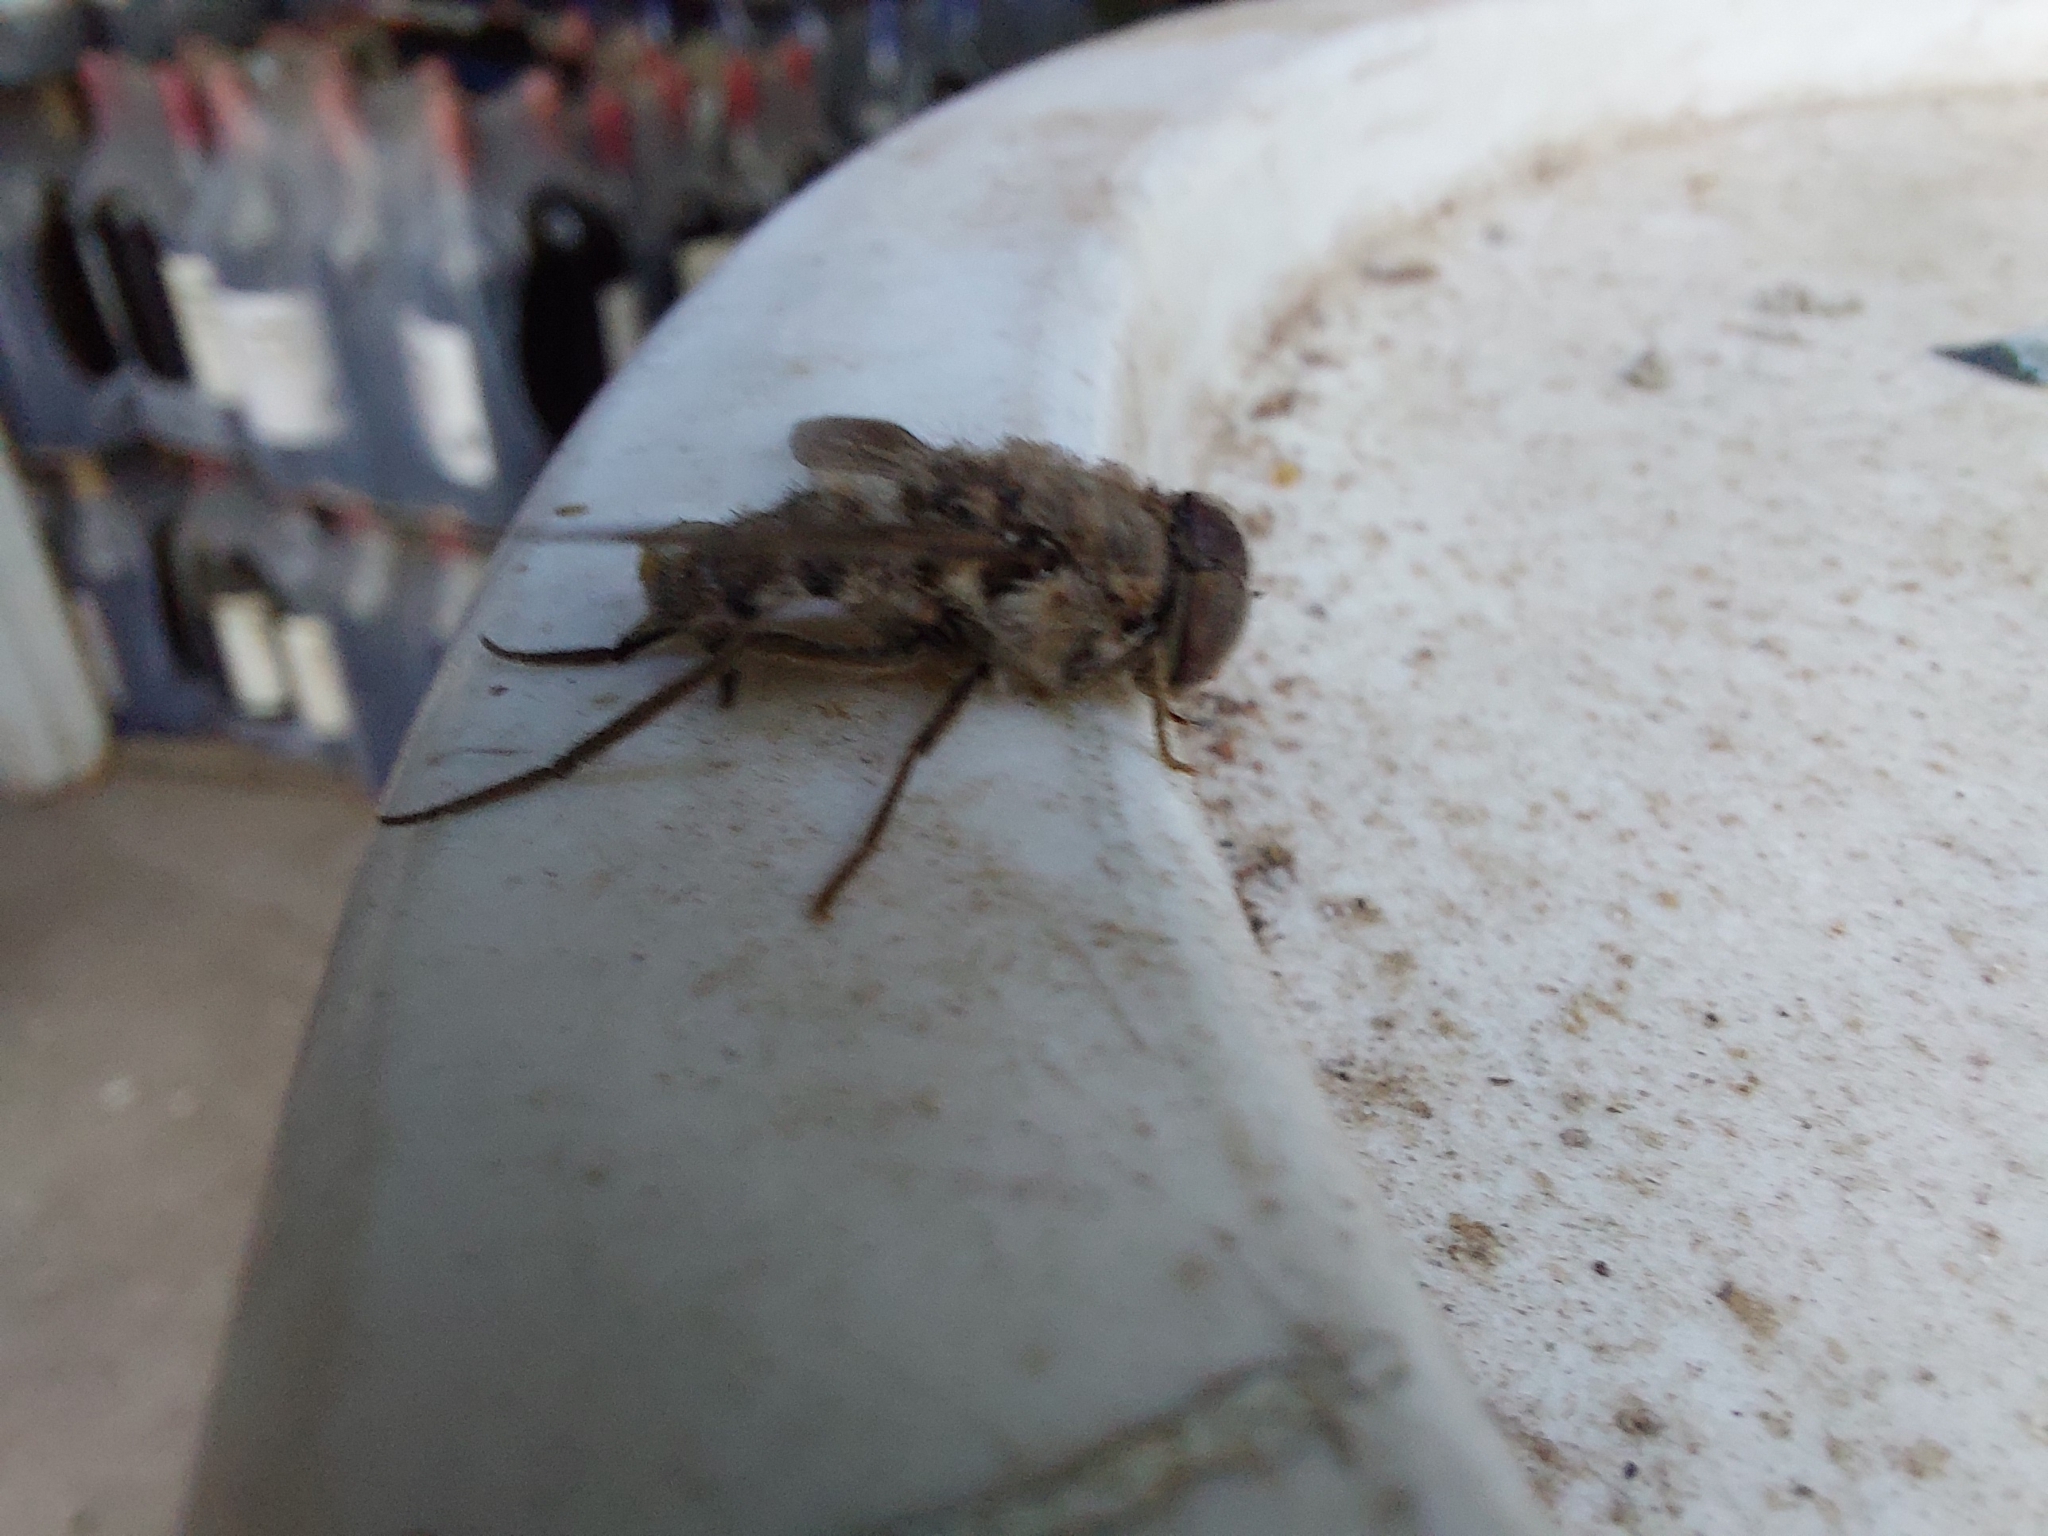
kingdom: Animalia
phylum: Arthropoda
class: Insecta
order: Diptera
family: Nemestrinidae
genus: Hirmoneuropsis
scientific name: Hirmoneuropsis punctipennis
